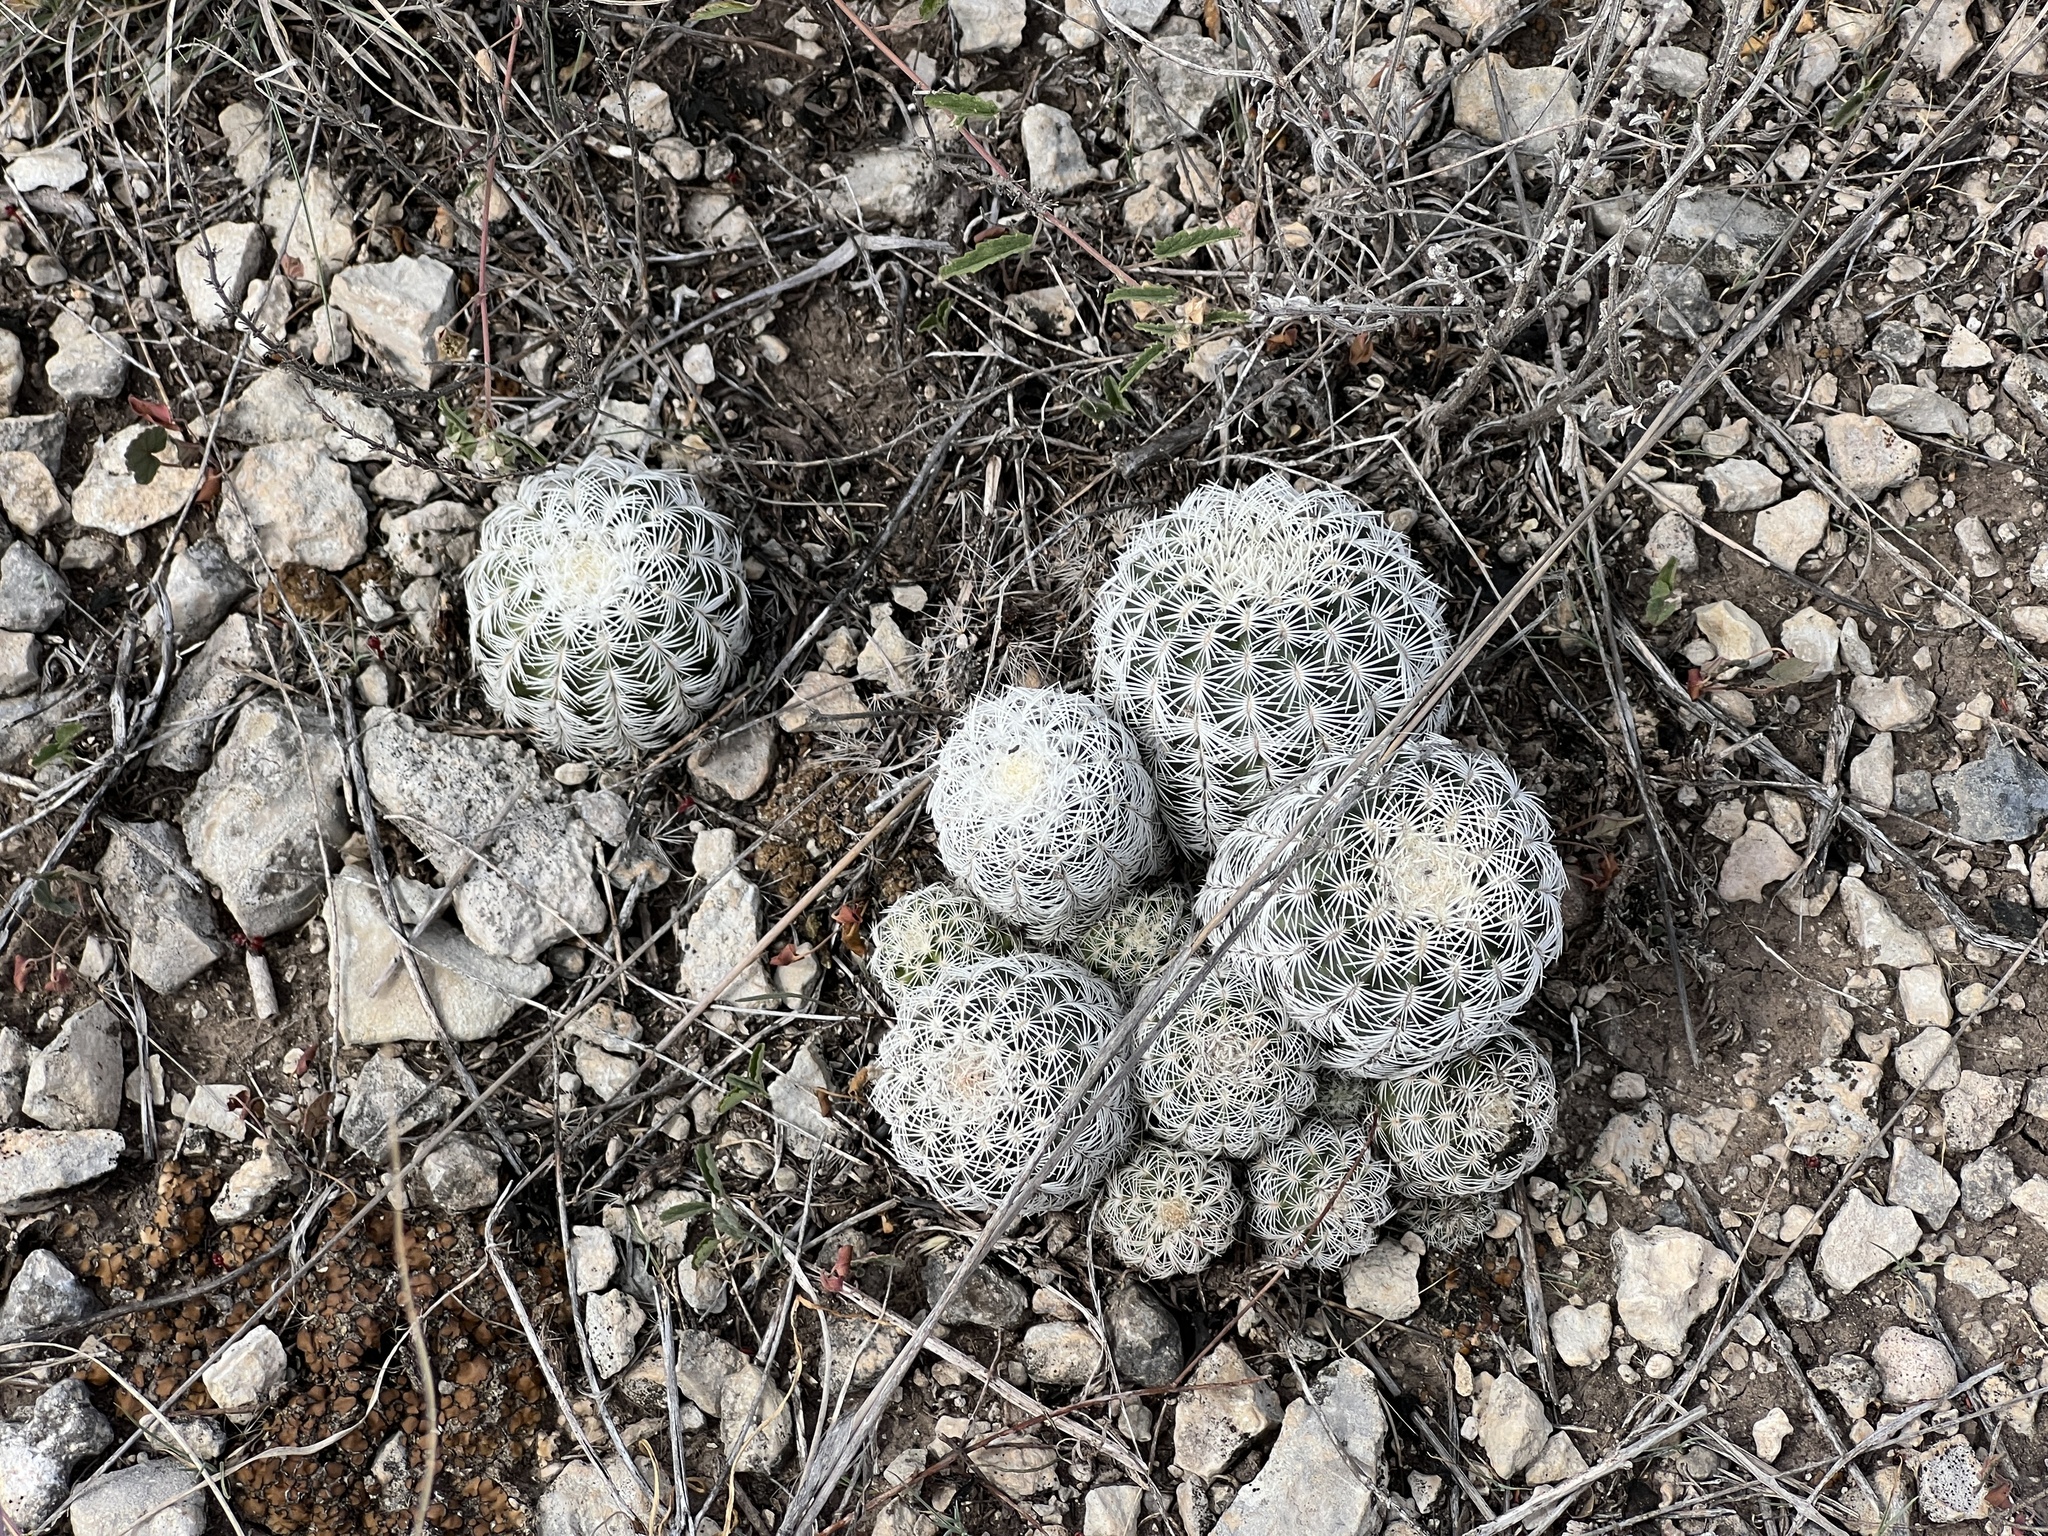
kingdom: Plantae
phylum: Tracheophyta
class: Magnoliopsida
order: Caryophyllales
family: Cactaceae
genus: Echinocereus
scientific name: Echinocereus reichenbachii
